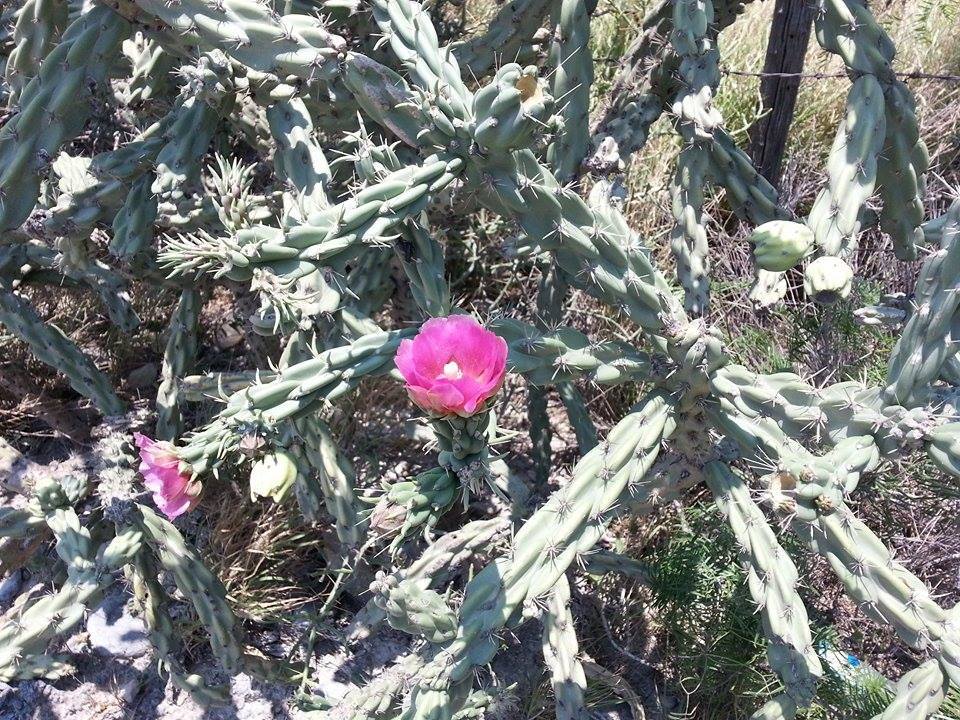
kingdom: Plantae
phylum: Tracheophyta
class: Magnoliopsida
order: Caryophyllales
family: Cactaceae
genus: Cylindropuntia
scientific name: Cylindropuntia imbricata
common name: Candelabrum cactus
